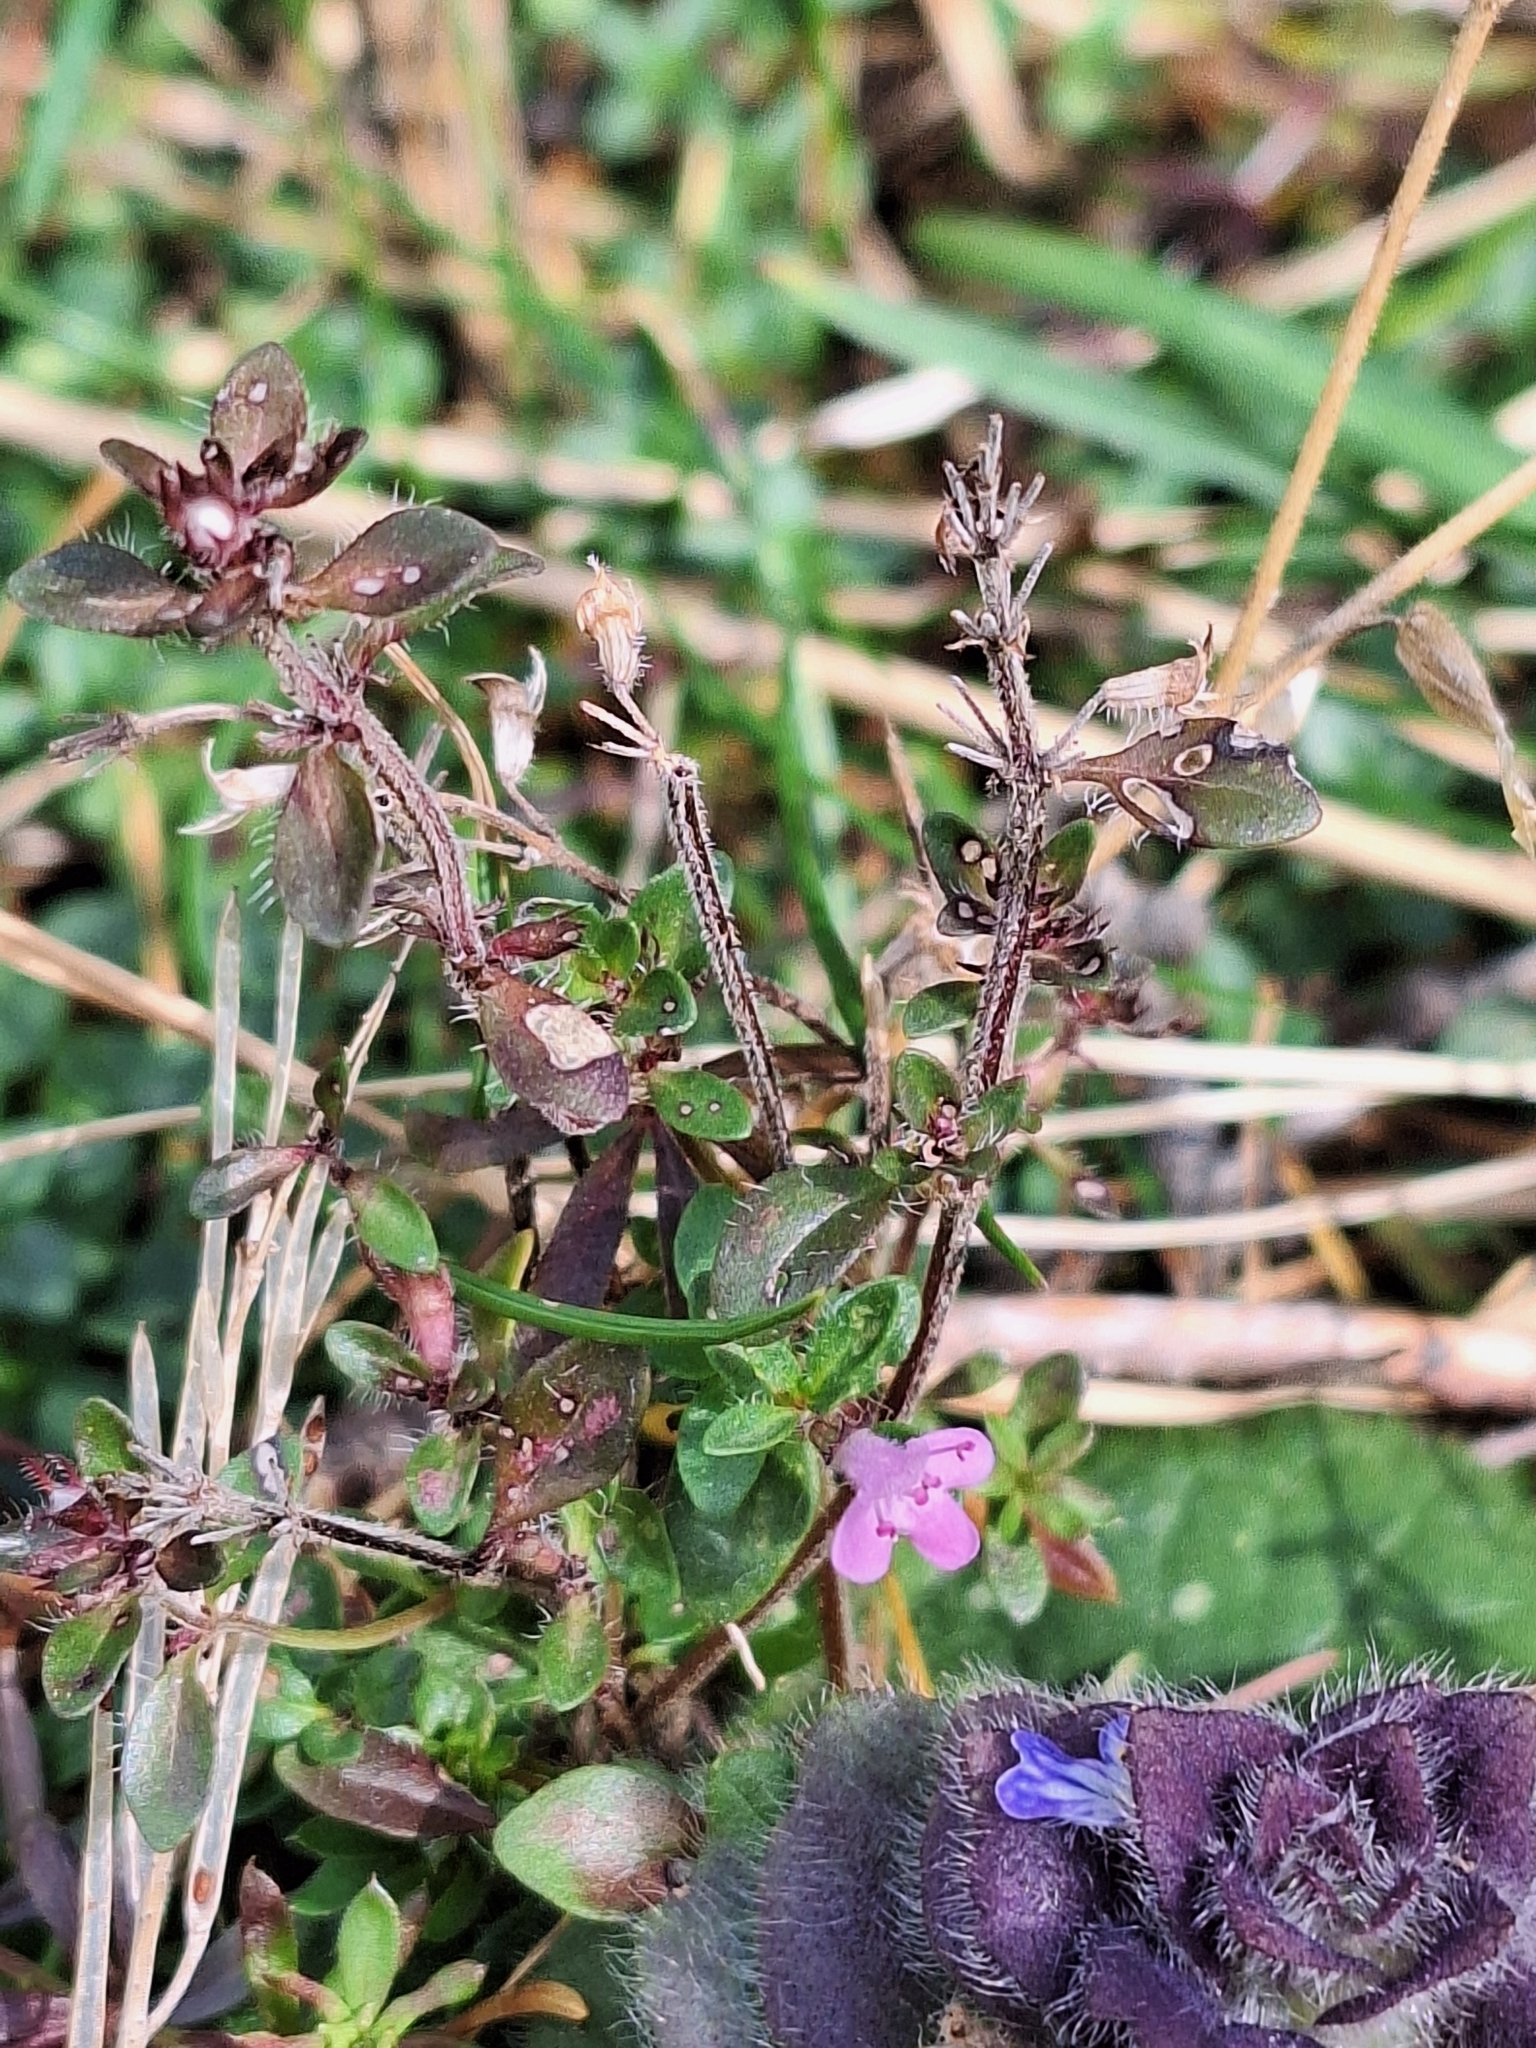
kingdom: Plantae
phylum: Tracheophyta
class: Magnoliopsida
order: Lamiales
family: Lamiaceae
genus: Thymus
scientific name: Thymus pulegioides
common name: Large thyme
